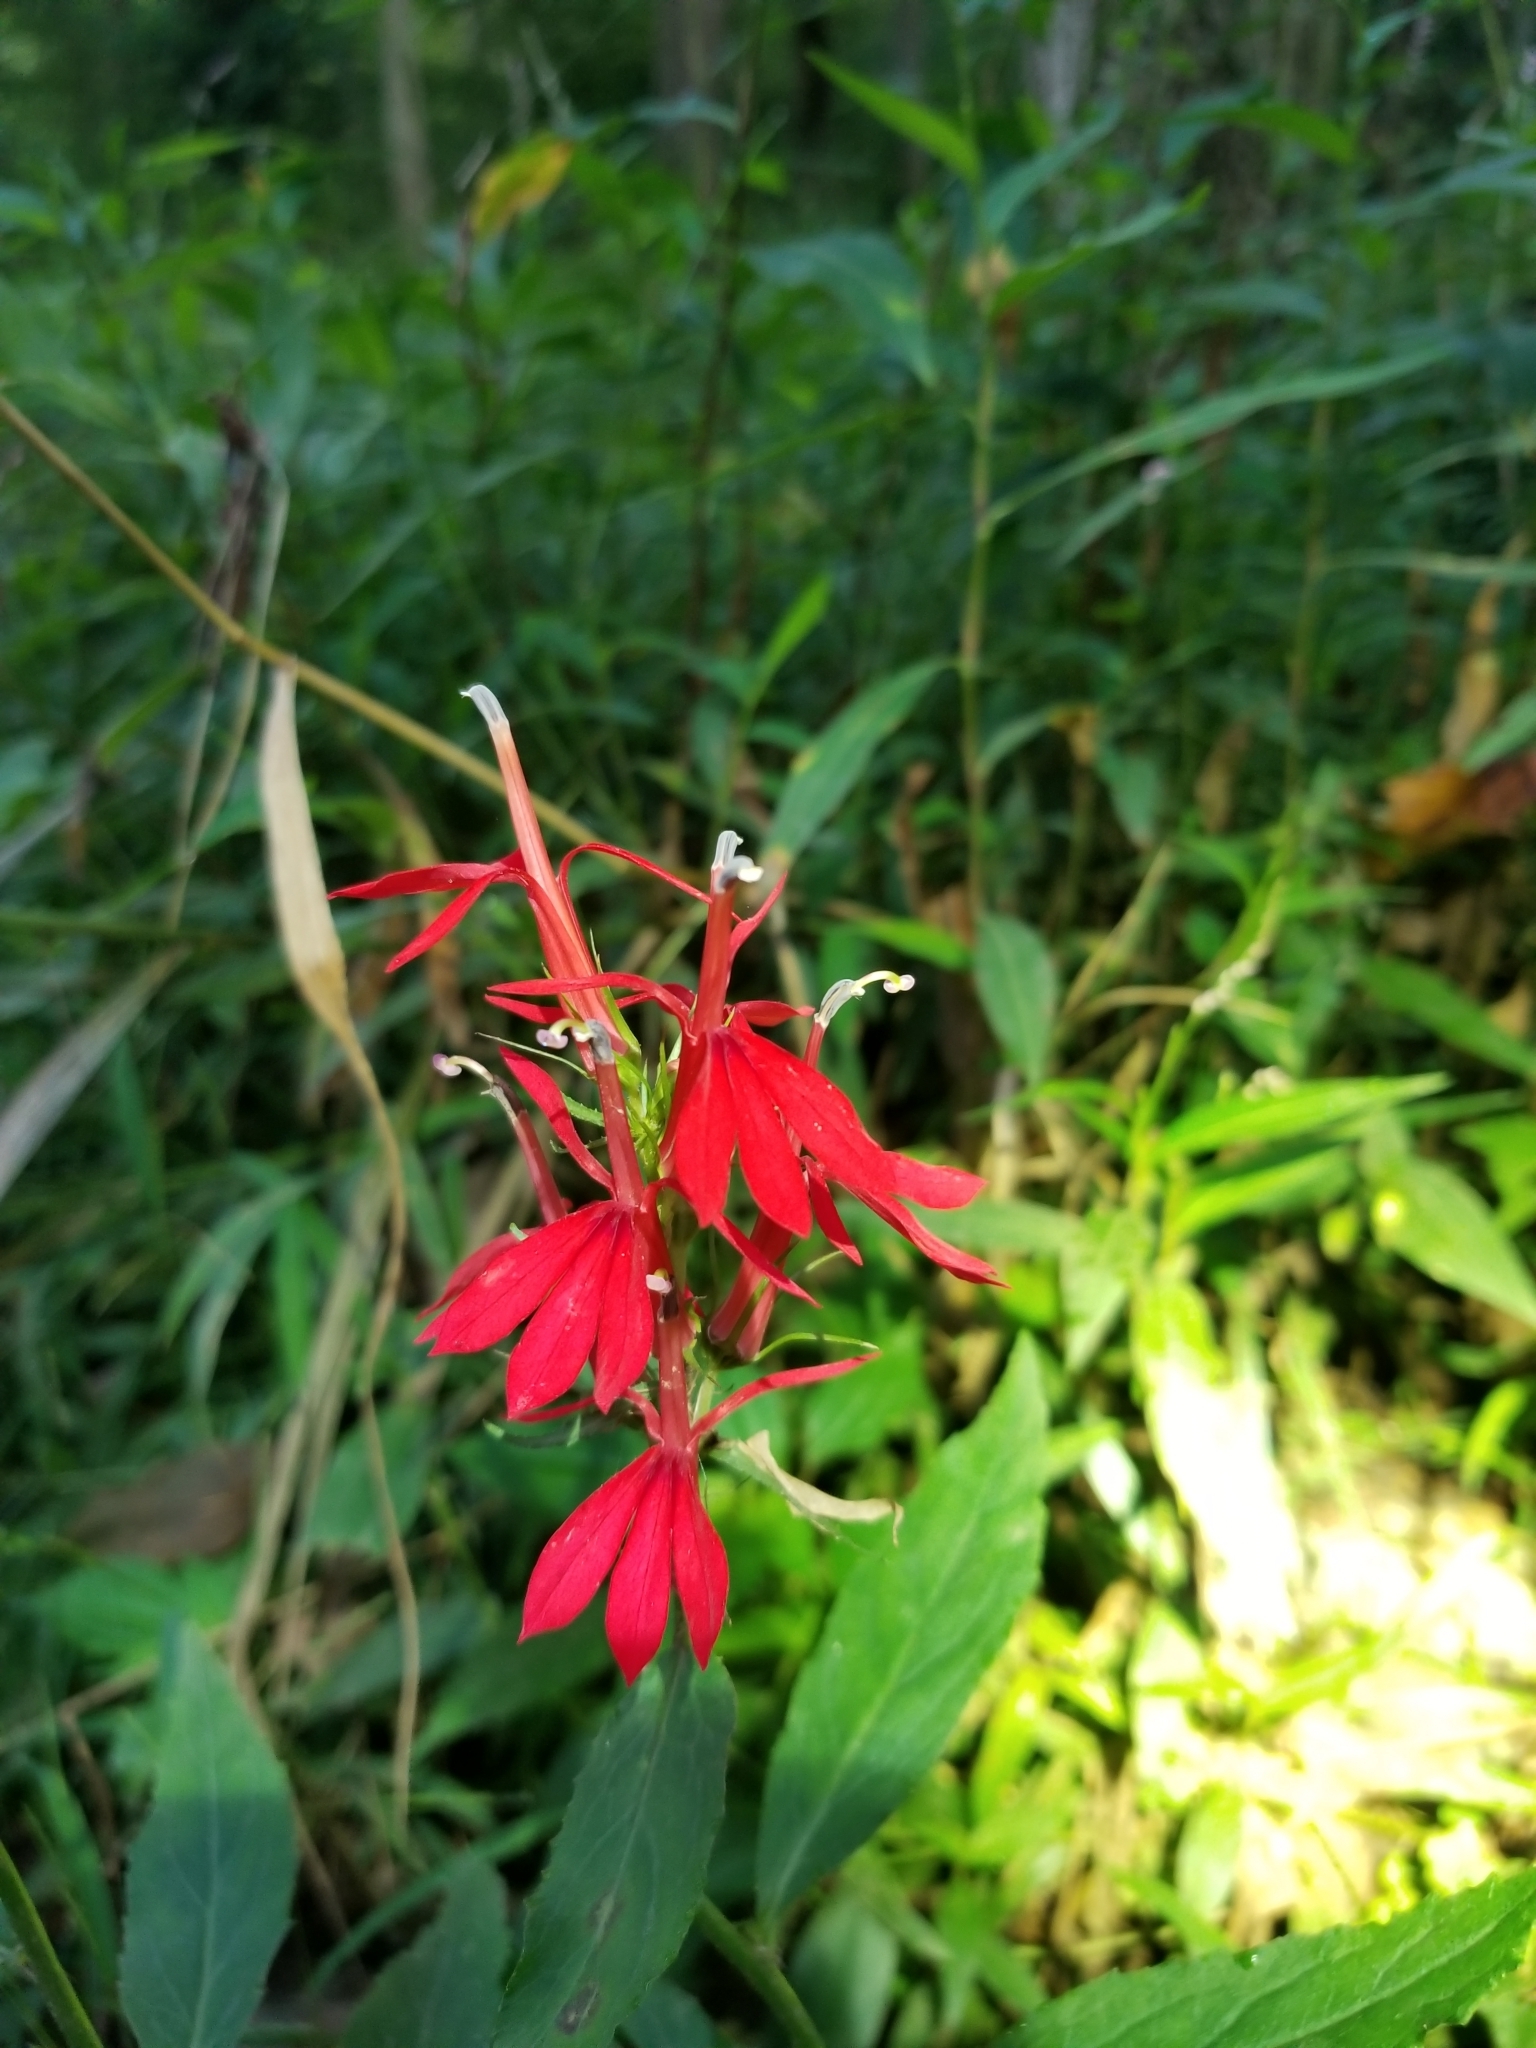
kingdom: Plantae
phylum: Tracheophyta
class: Magnoliopsida
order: Asterales
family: Campanulaceae
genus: Lobelia
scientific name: Lobelia cardinalis
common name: Cardinal flower
